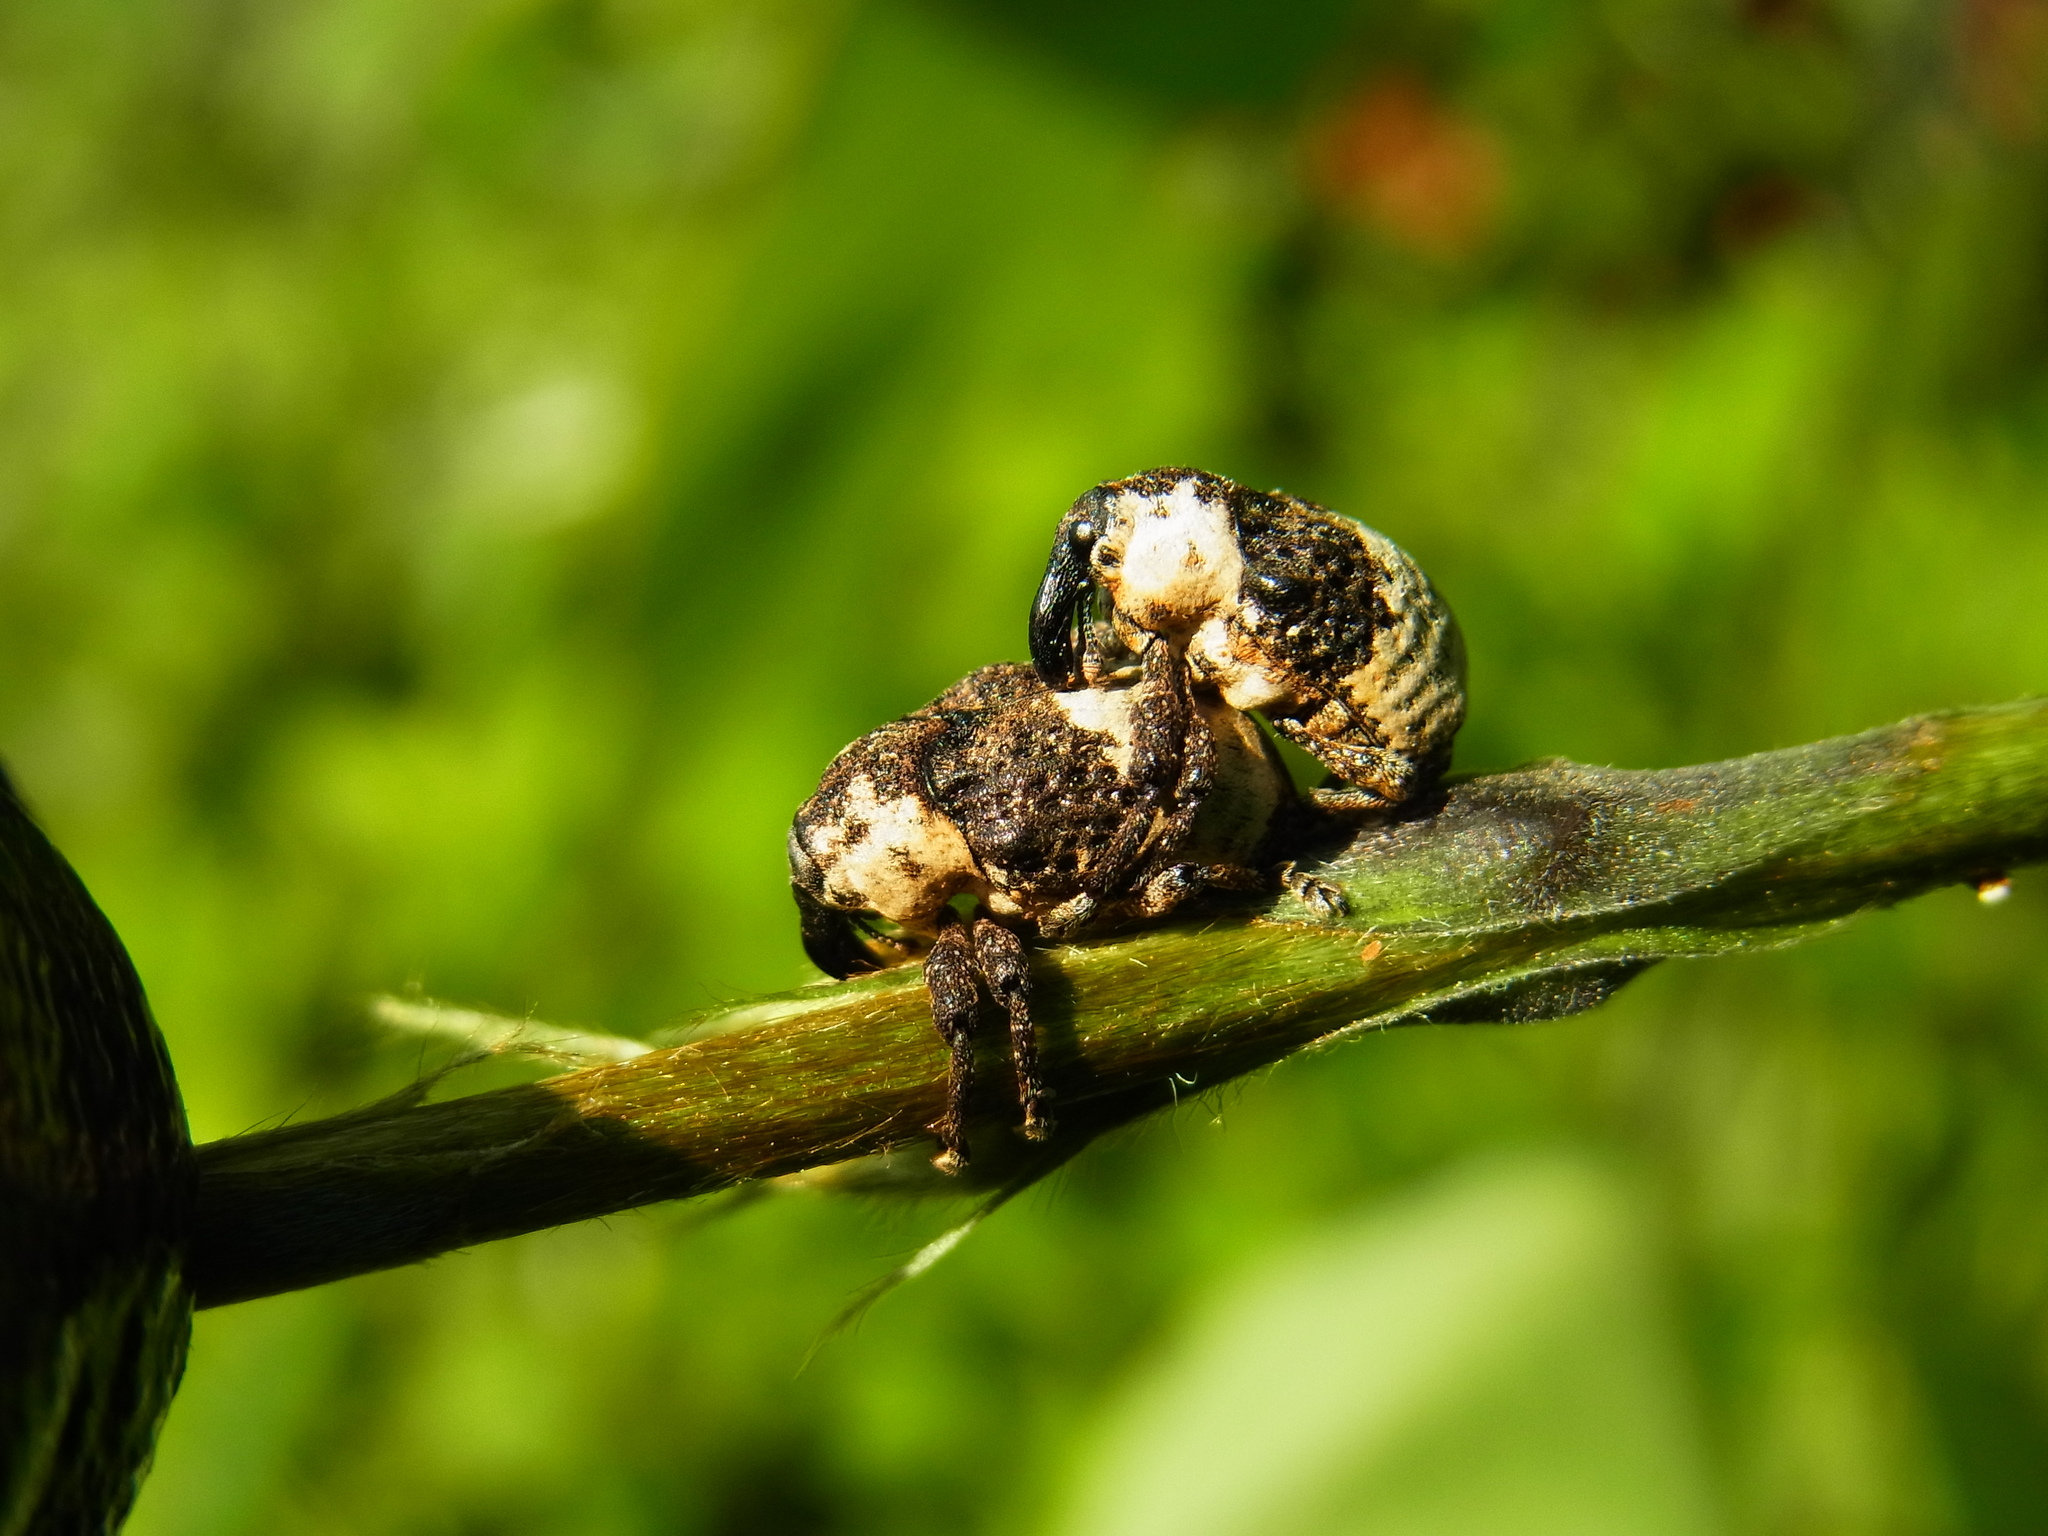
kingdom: Animalia
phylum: Arthropoda
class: Insecta
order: Coleoptera
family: Curculionidae
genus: Alcides
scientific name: Alcides trifidus
